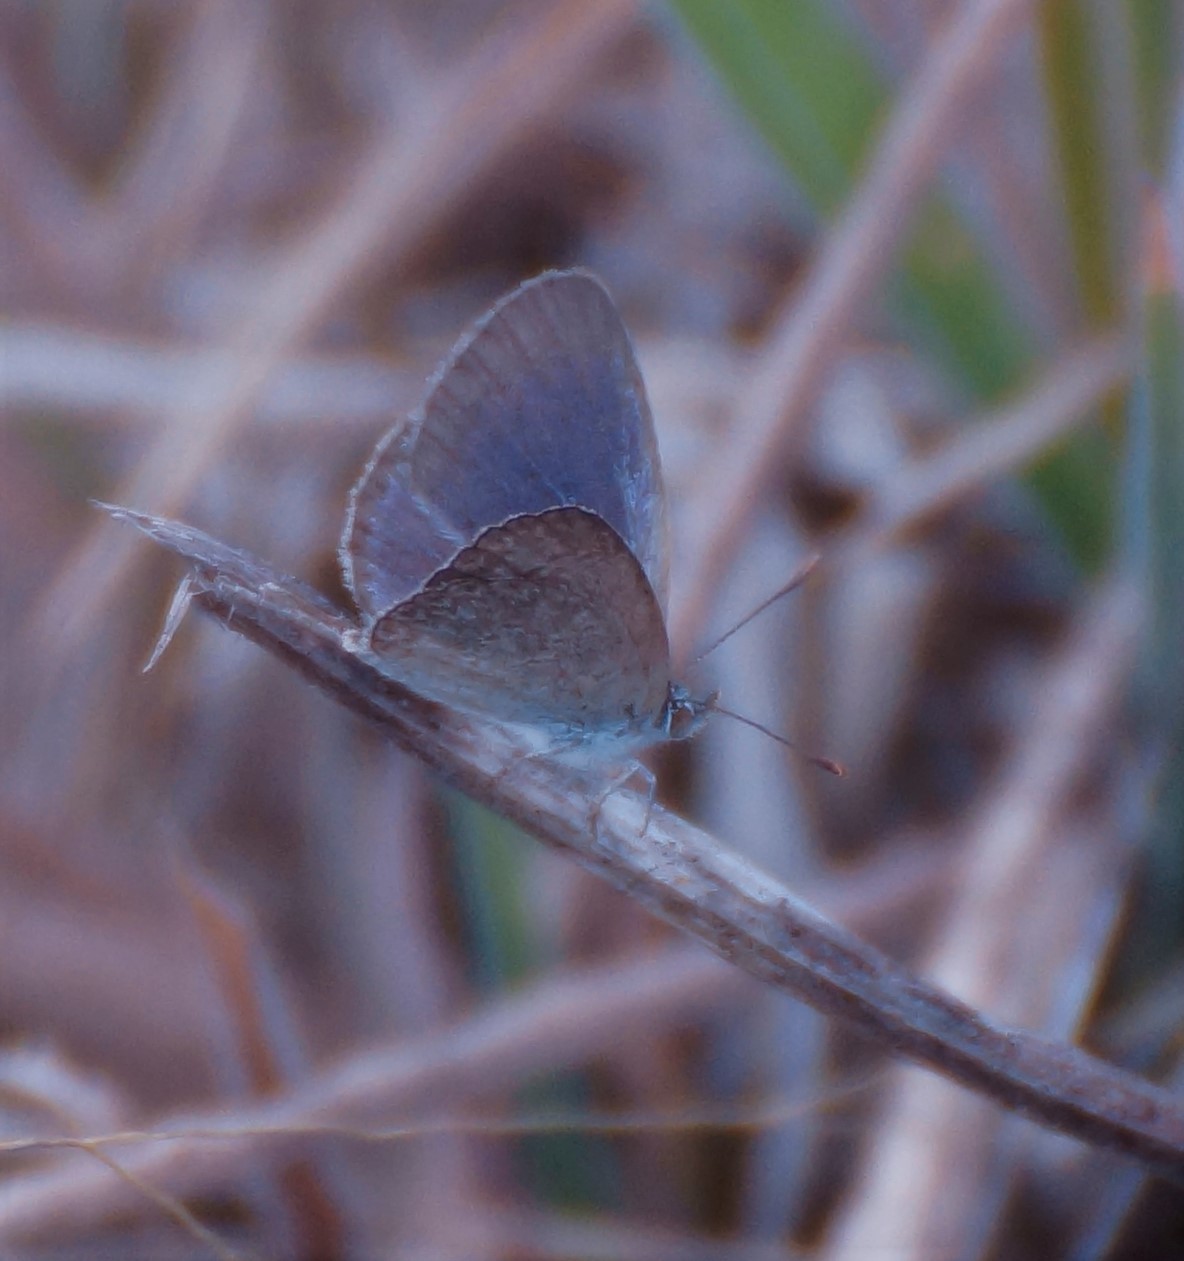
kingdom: Animalia
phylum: Arthropoda
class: Insecta
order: Lepidoptera
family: Lycaenidae
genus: Zizina
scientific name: Zizina labradus
